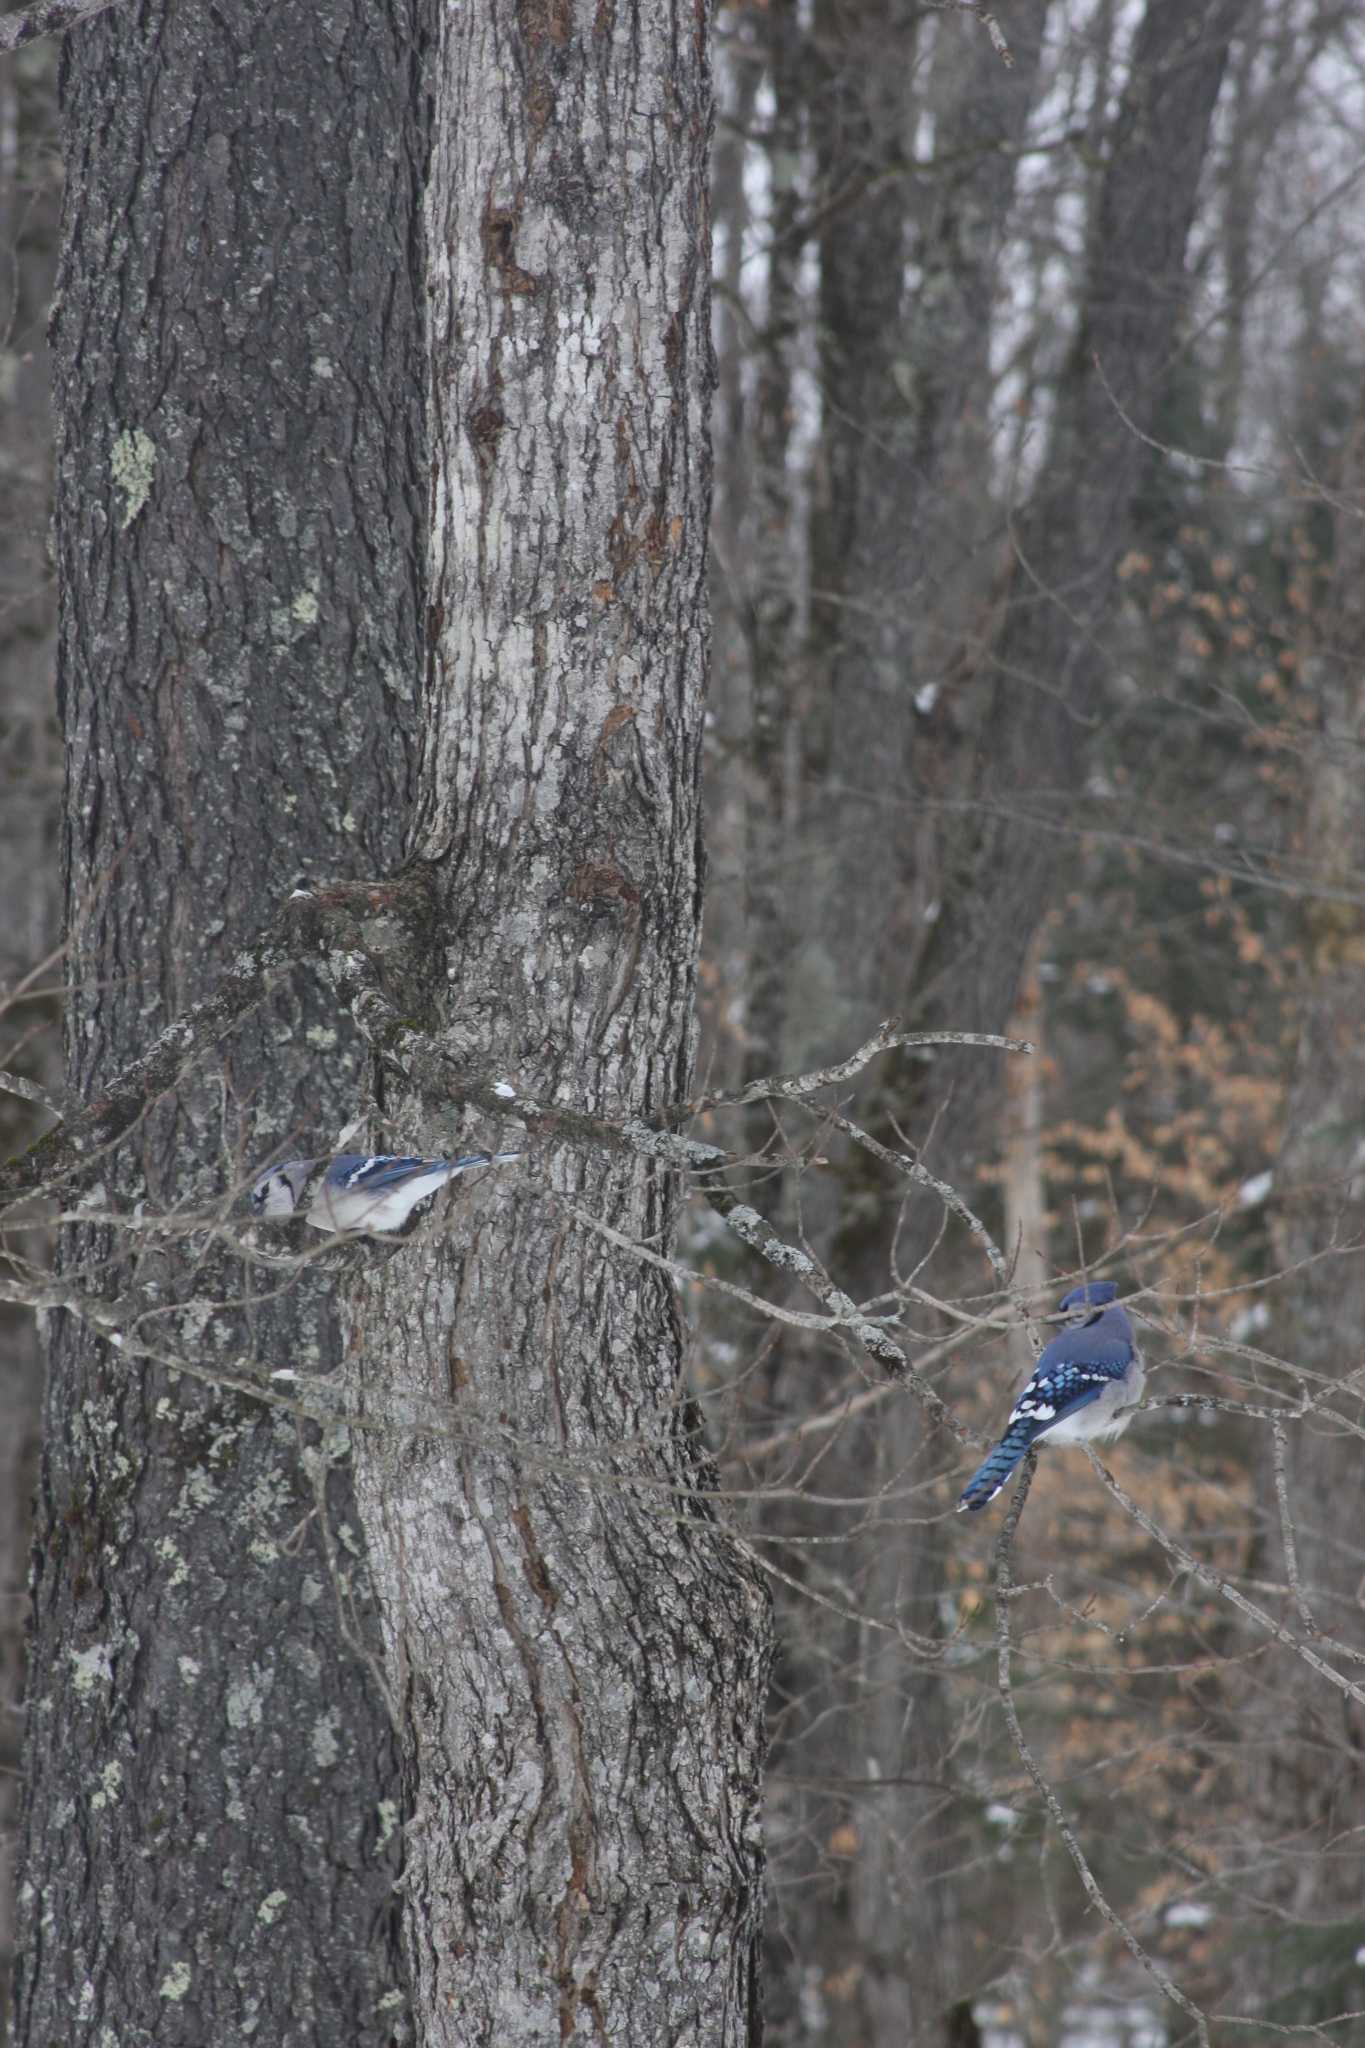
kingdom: Animalia
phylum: Chordata
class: Aves
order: Passeriformes
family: Corvidae
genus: Cyanocitta
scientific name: Cyanocitta cristata
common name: Blue jay
